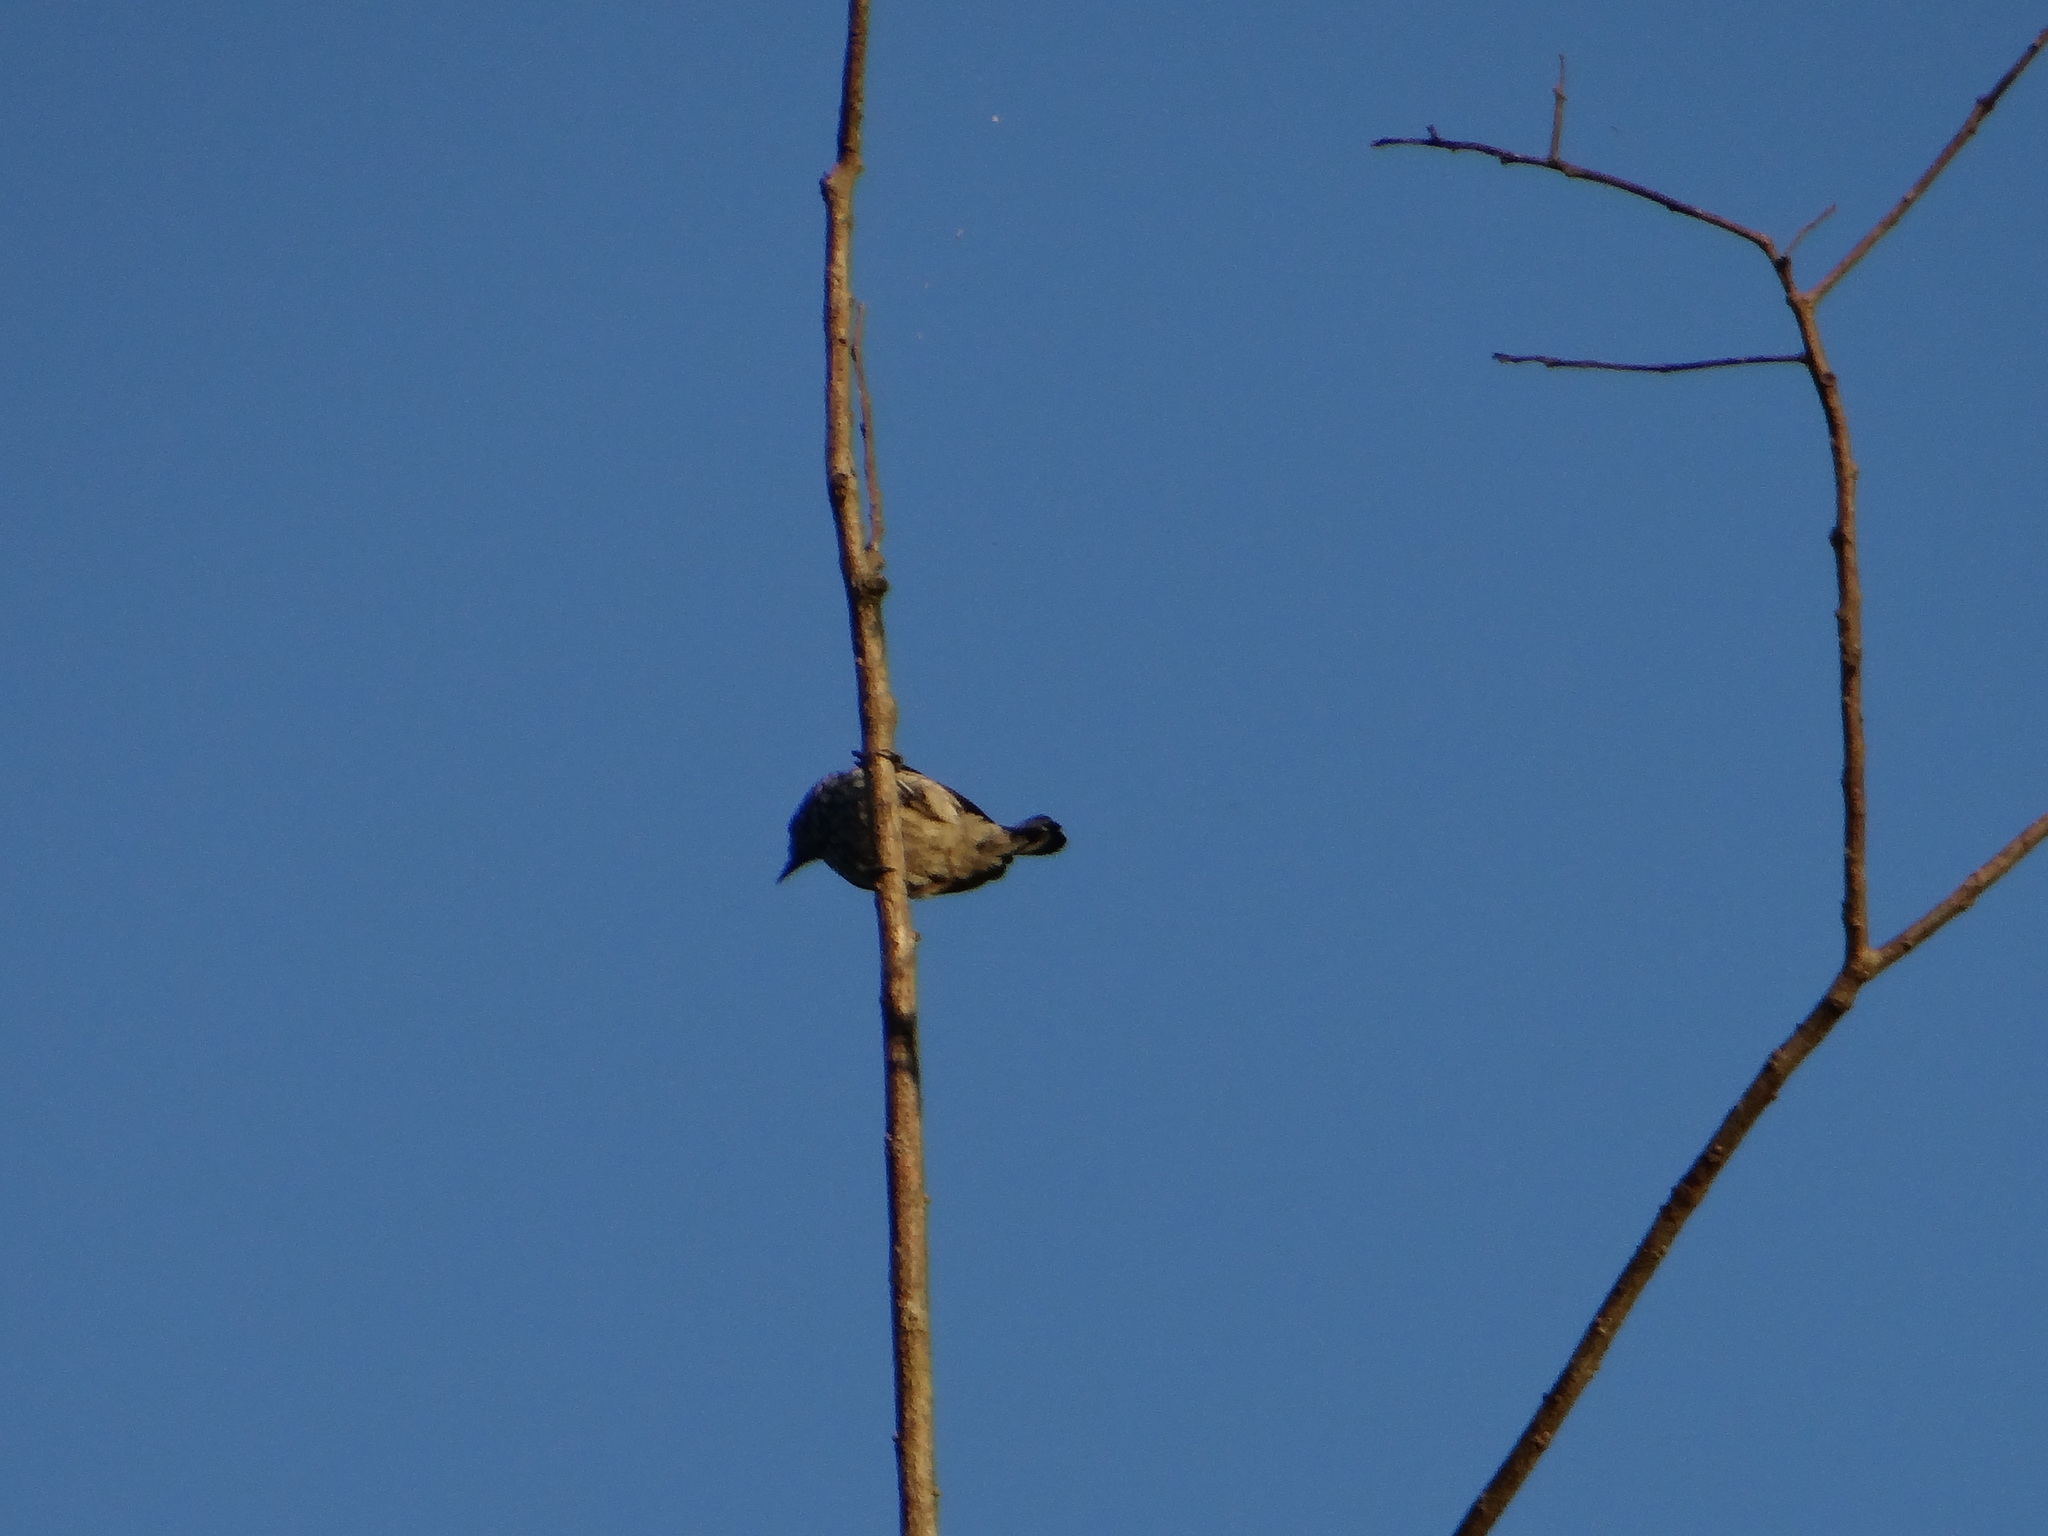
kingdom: Animalia
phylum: Chordata
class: Aves
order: Piciformes
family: Picidae
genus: Picumnus
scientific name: Picumnus albosquamatus
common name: White-wedged piculet
